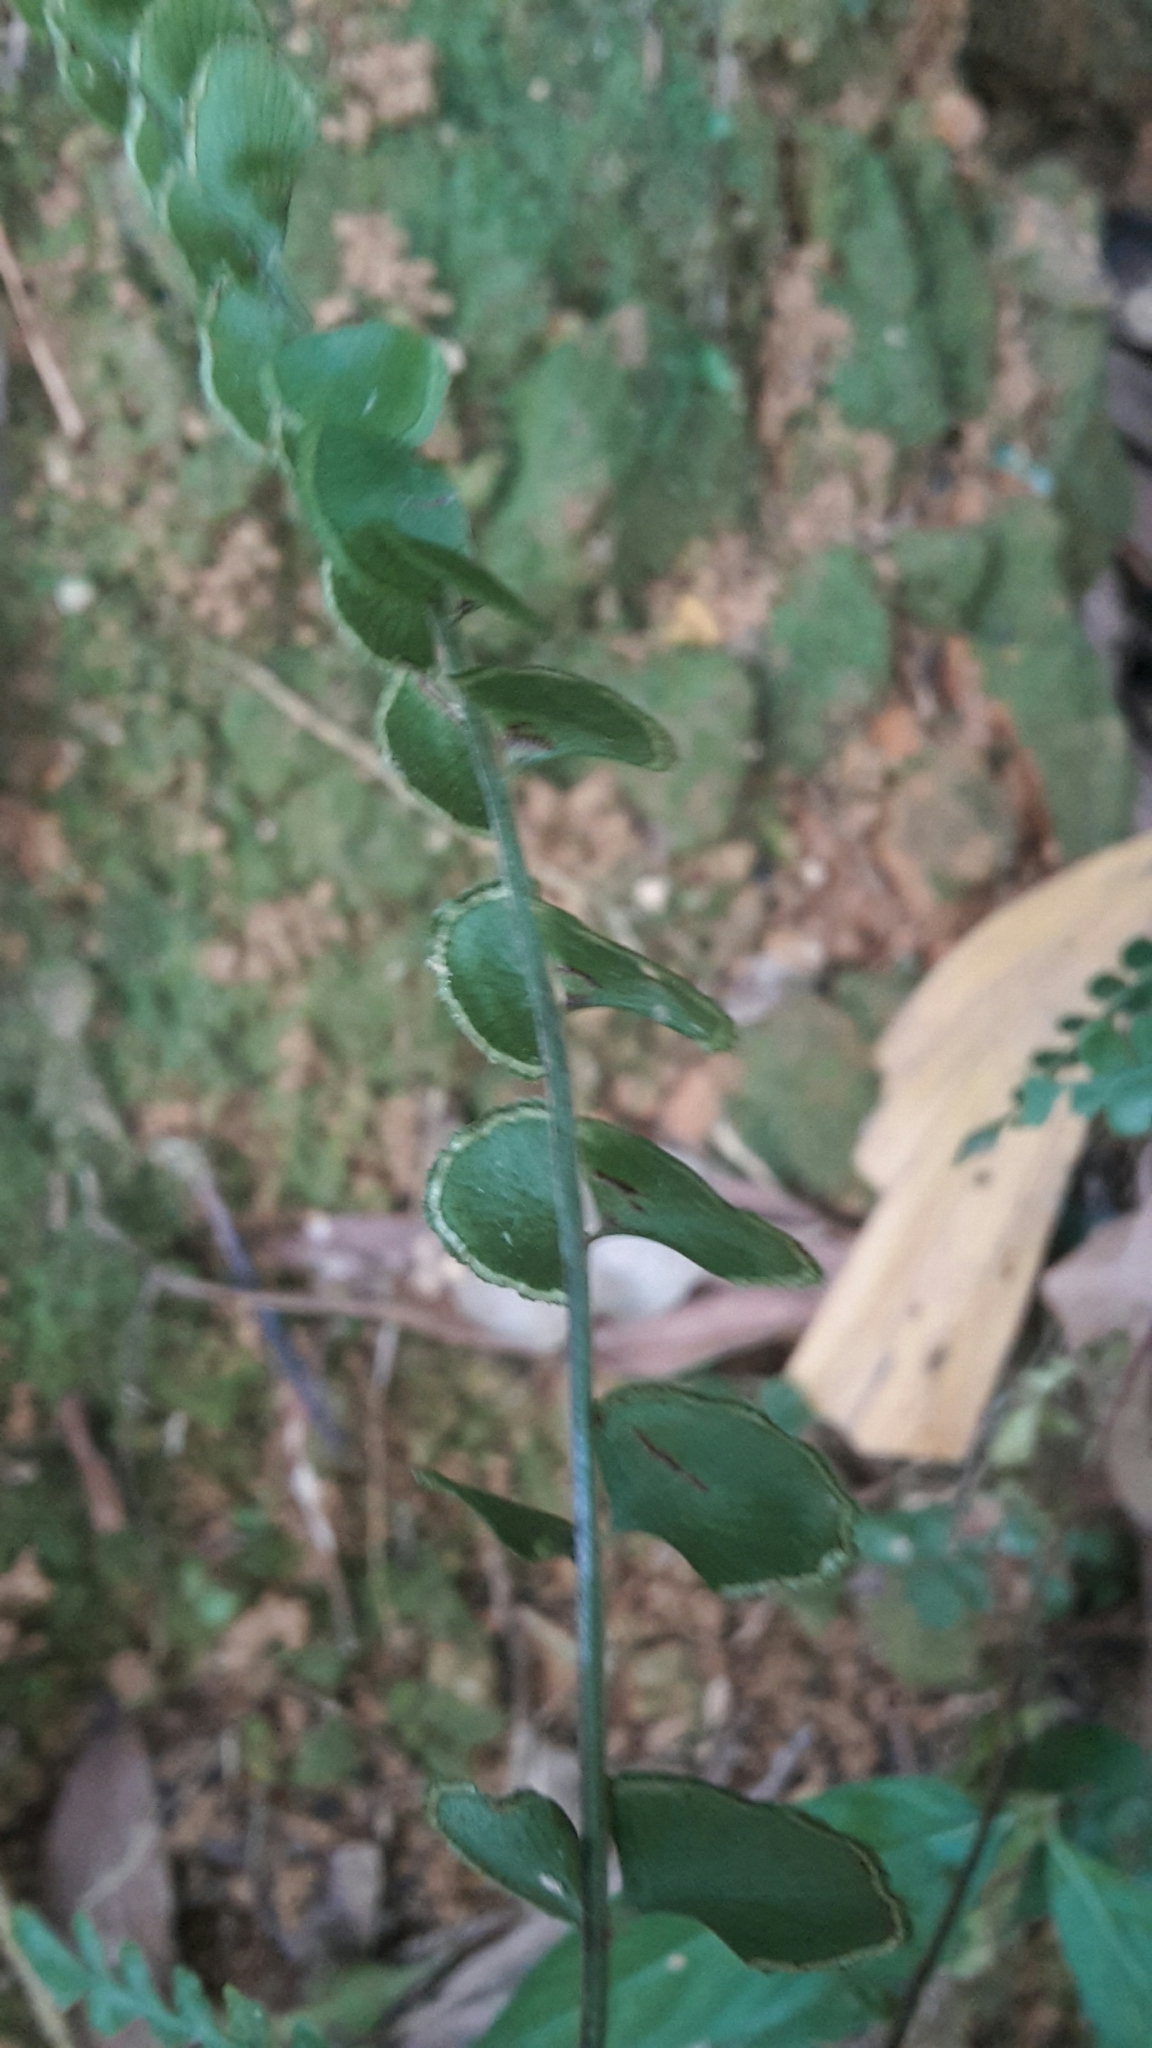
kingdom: Plantae
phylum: Tracheophyta
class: Polypodiopsida
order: Polypodiales
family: Lindsaeaceae
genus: Lindsaea
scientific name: Lindsaea orbiculata
